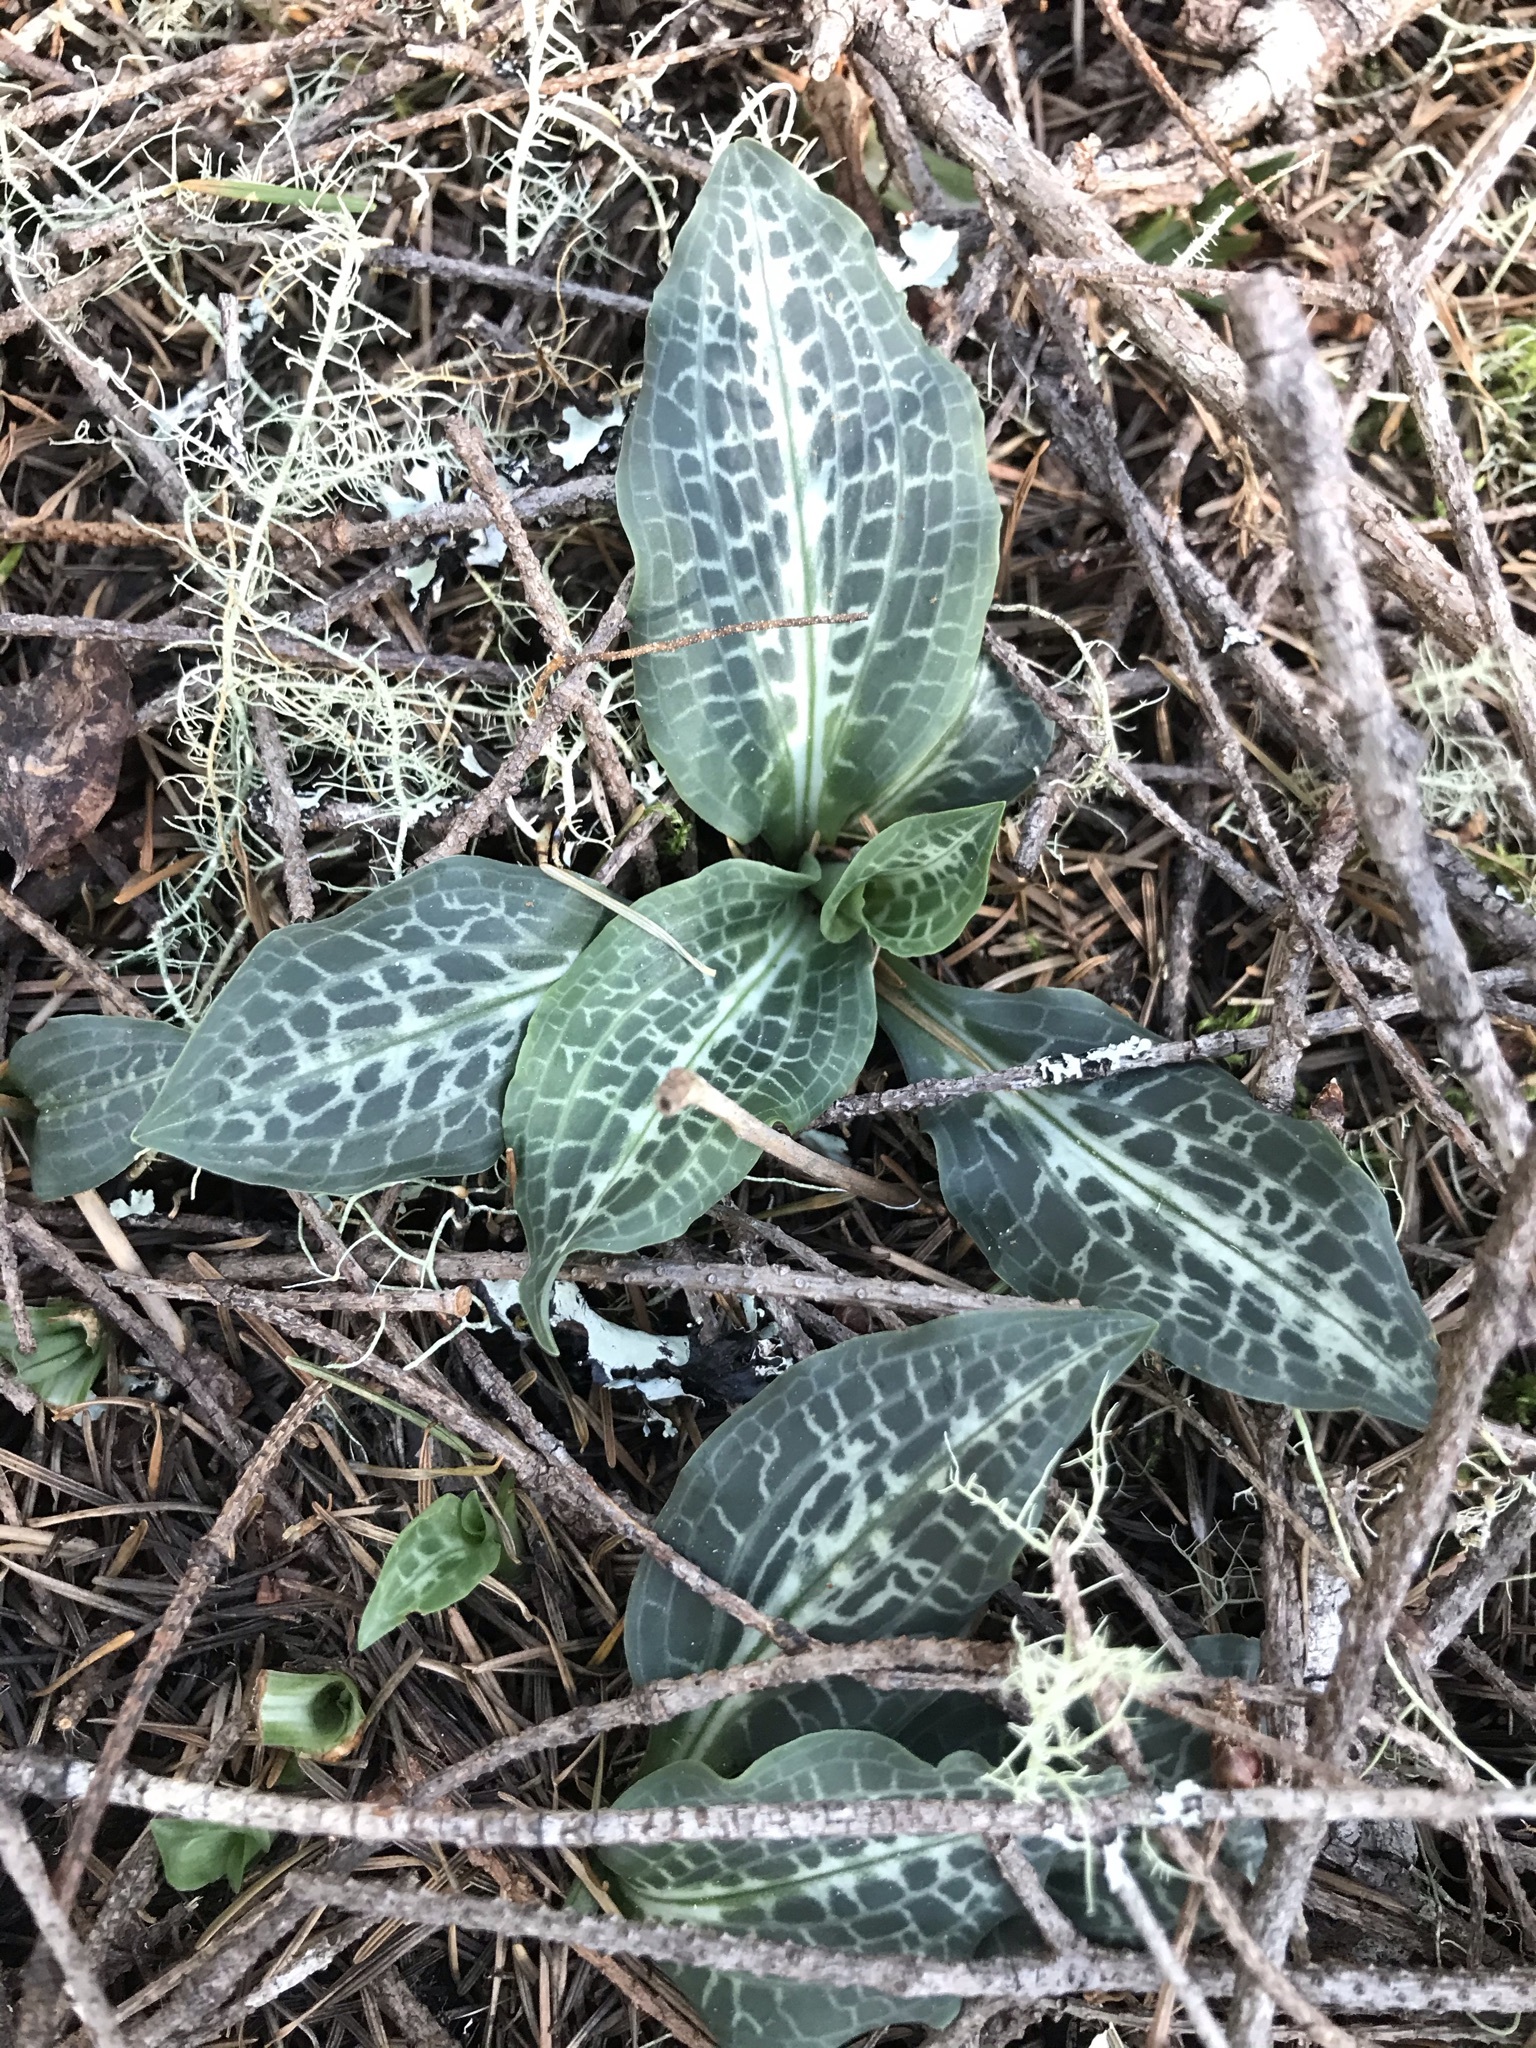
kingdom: Plantae
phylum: Tracheophyta
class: Liliopsida
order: Asparagales
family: Orchidaceae
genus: Goodyera
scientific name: Goodyera oblongifolia
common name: Giant rattlesnake-plantain
